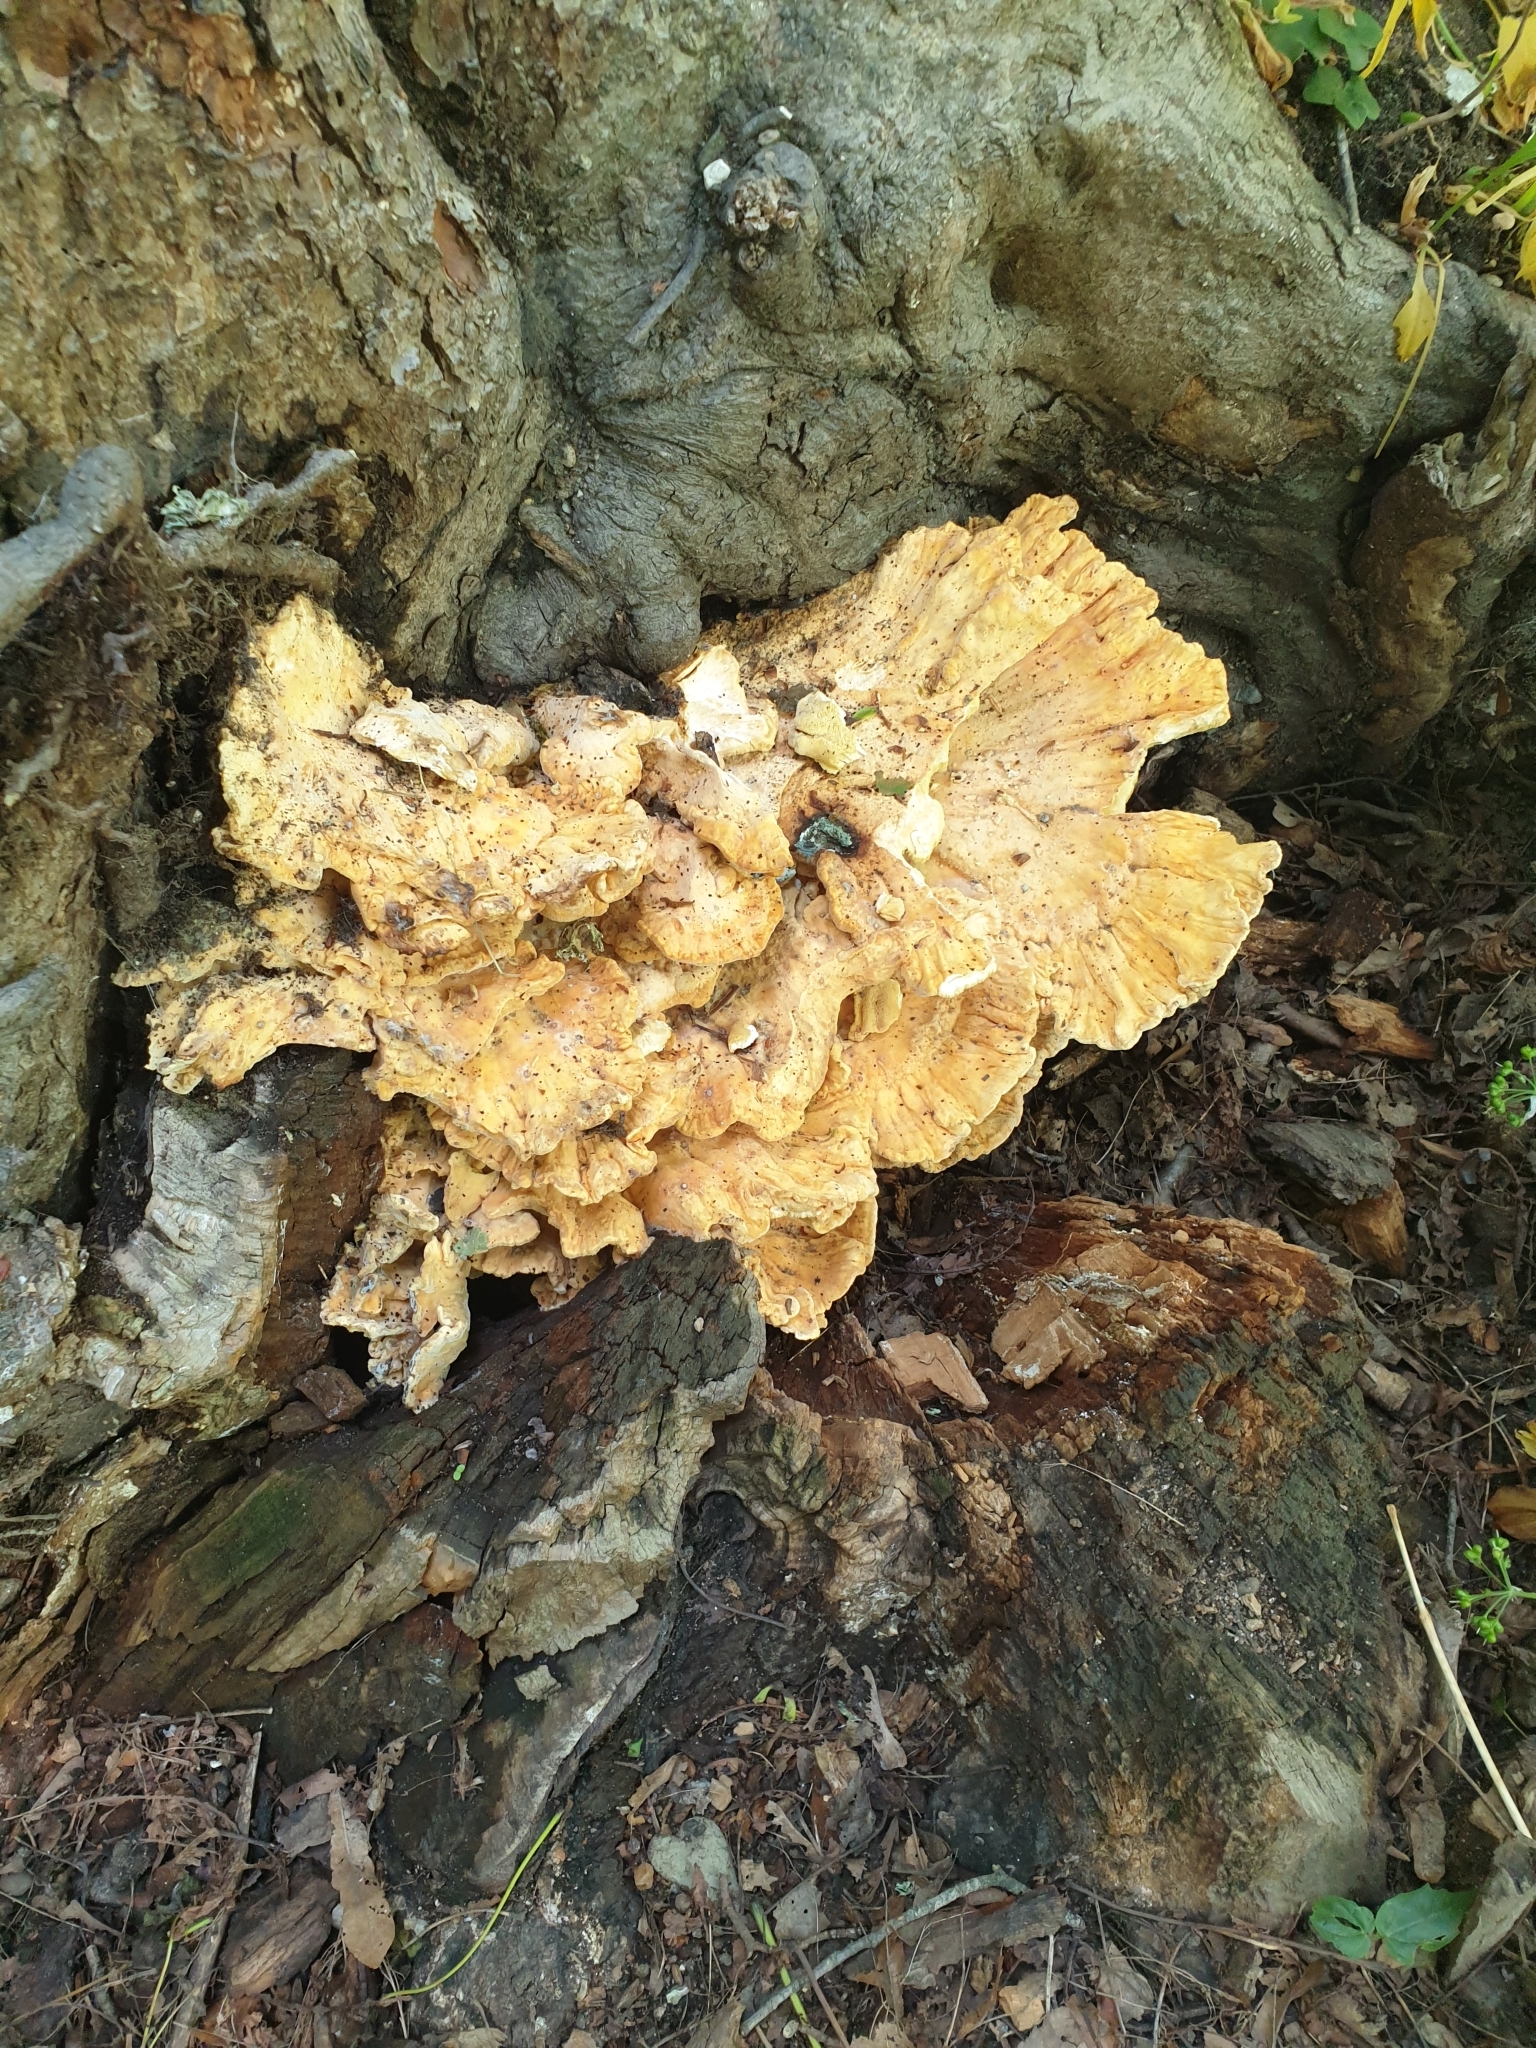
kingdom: Fungi
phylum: Basidiomycota
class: Agaricomycetes
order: Polyporales
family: Laetiporaceae
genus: Laetiporus
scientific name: Laetiporus sulphureus
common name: Chicken of the woods
